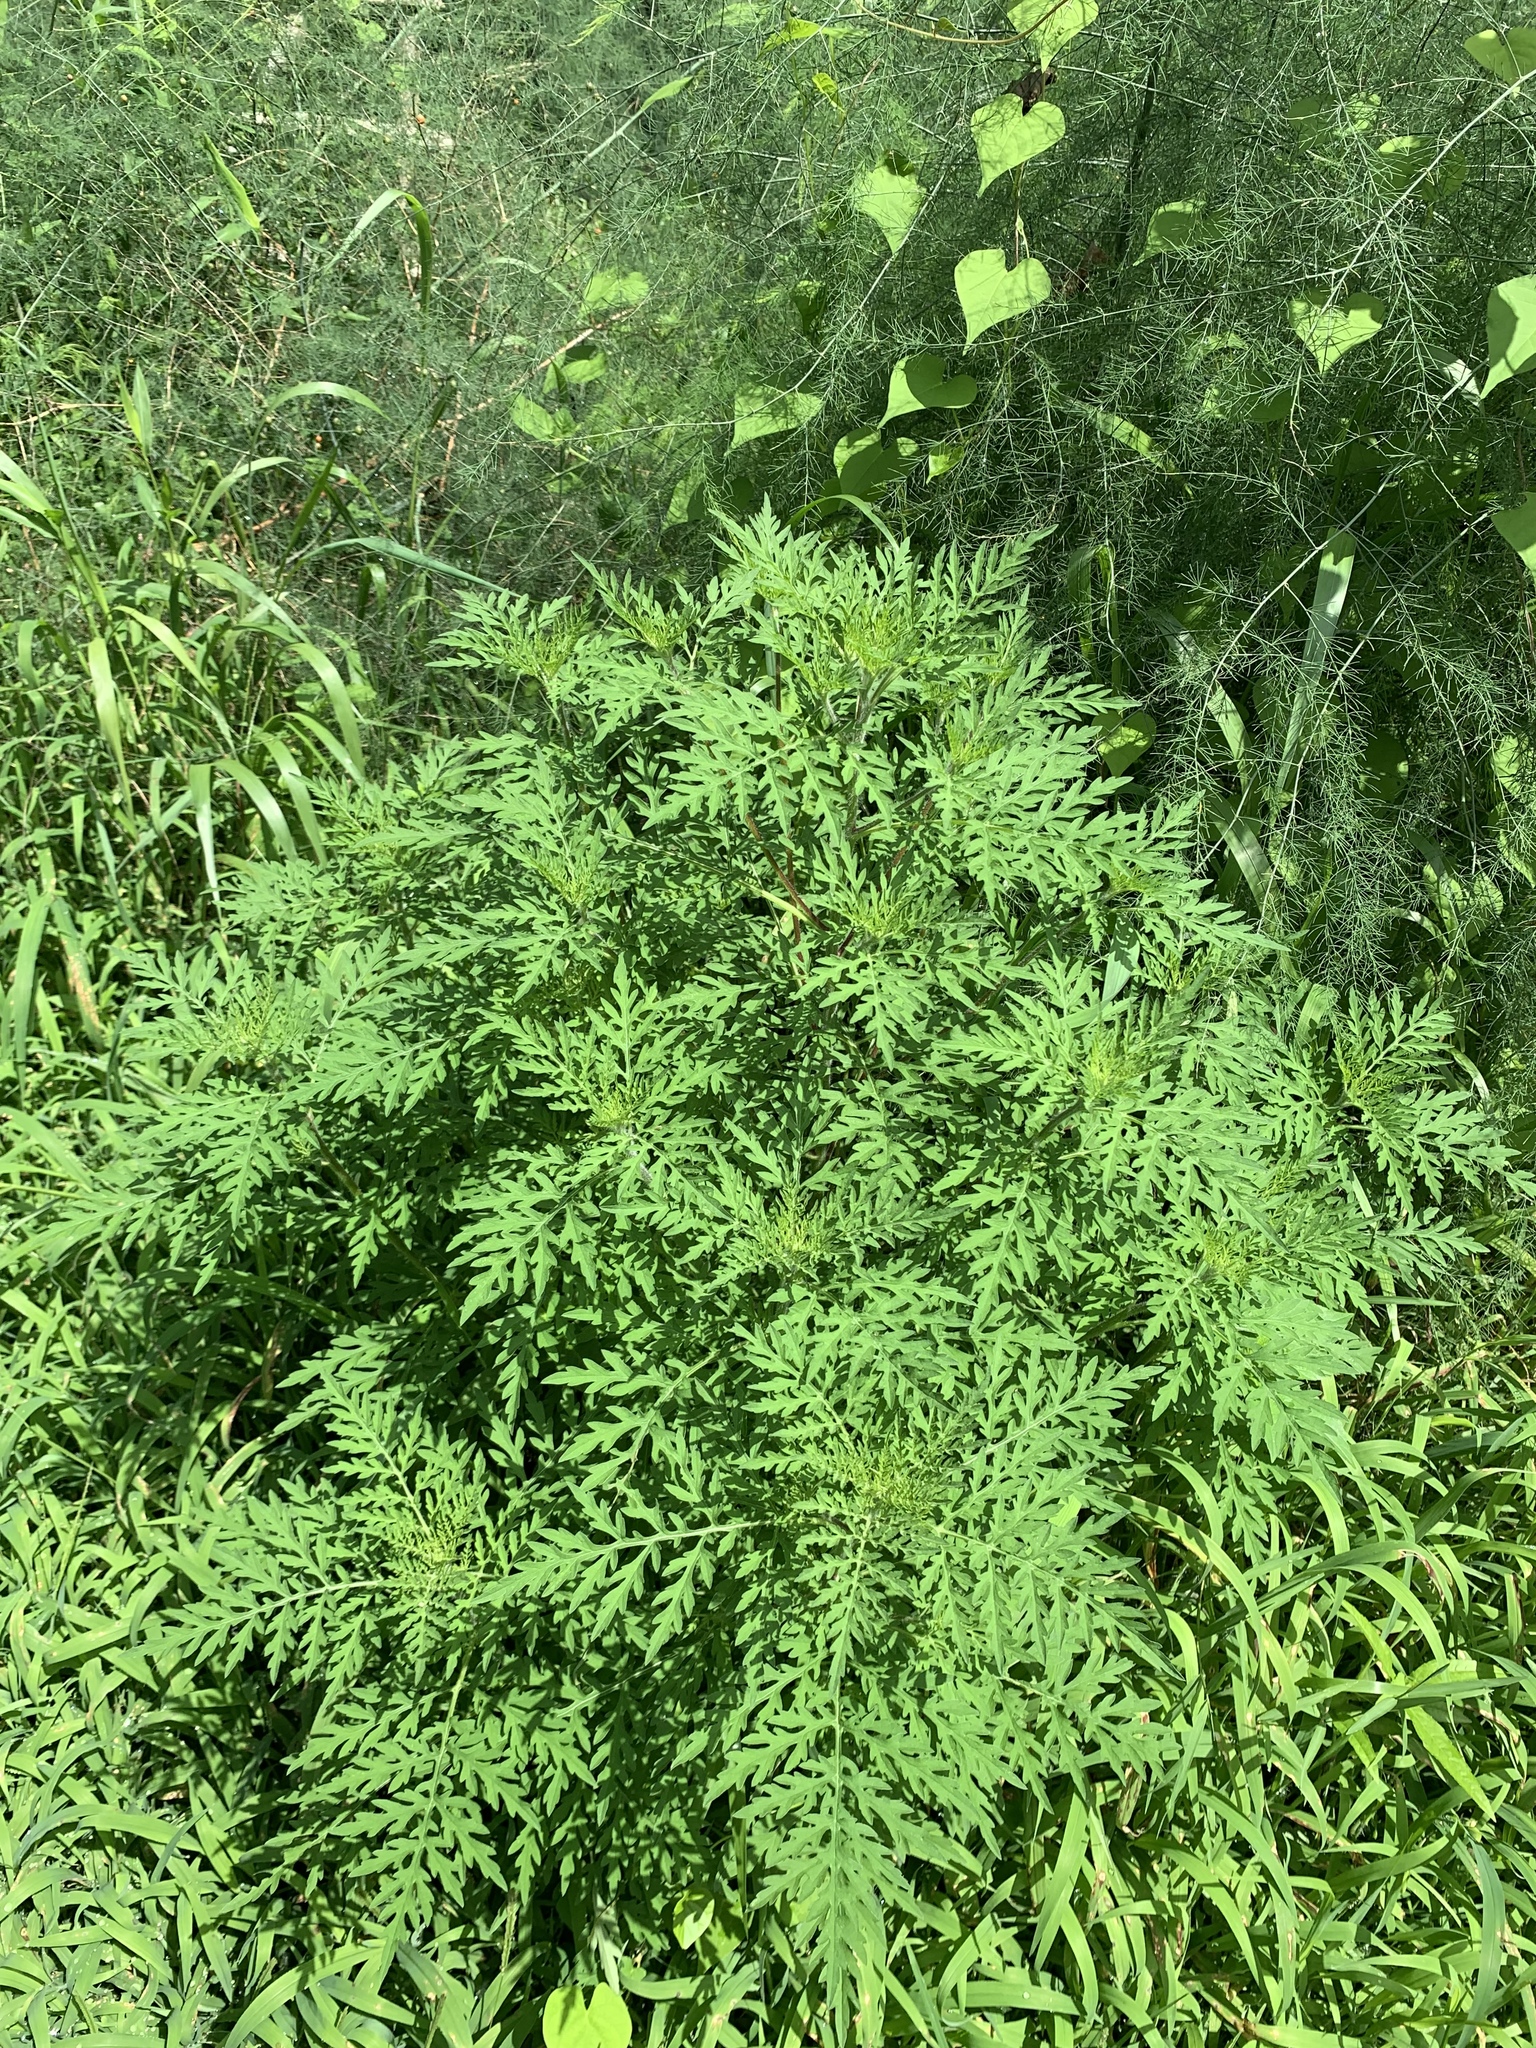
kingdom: Plantae
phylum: Tracheophyta
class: Magnoliopsida
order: Asterales
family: Asteraceae
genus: Ambrosia
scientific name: Ambrosia artemisiifolia
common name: Annual ragweed
